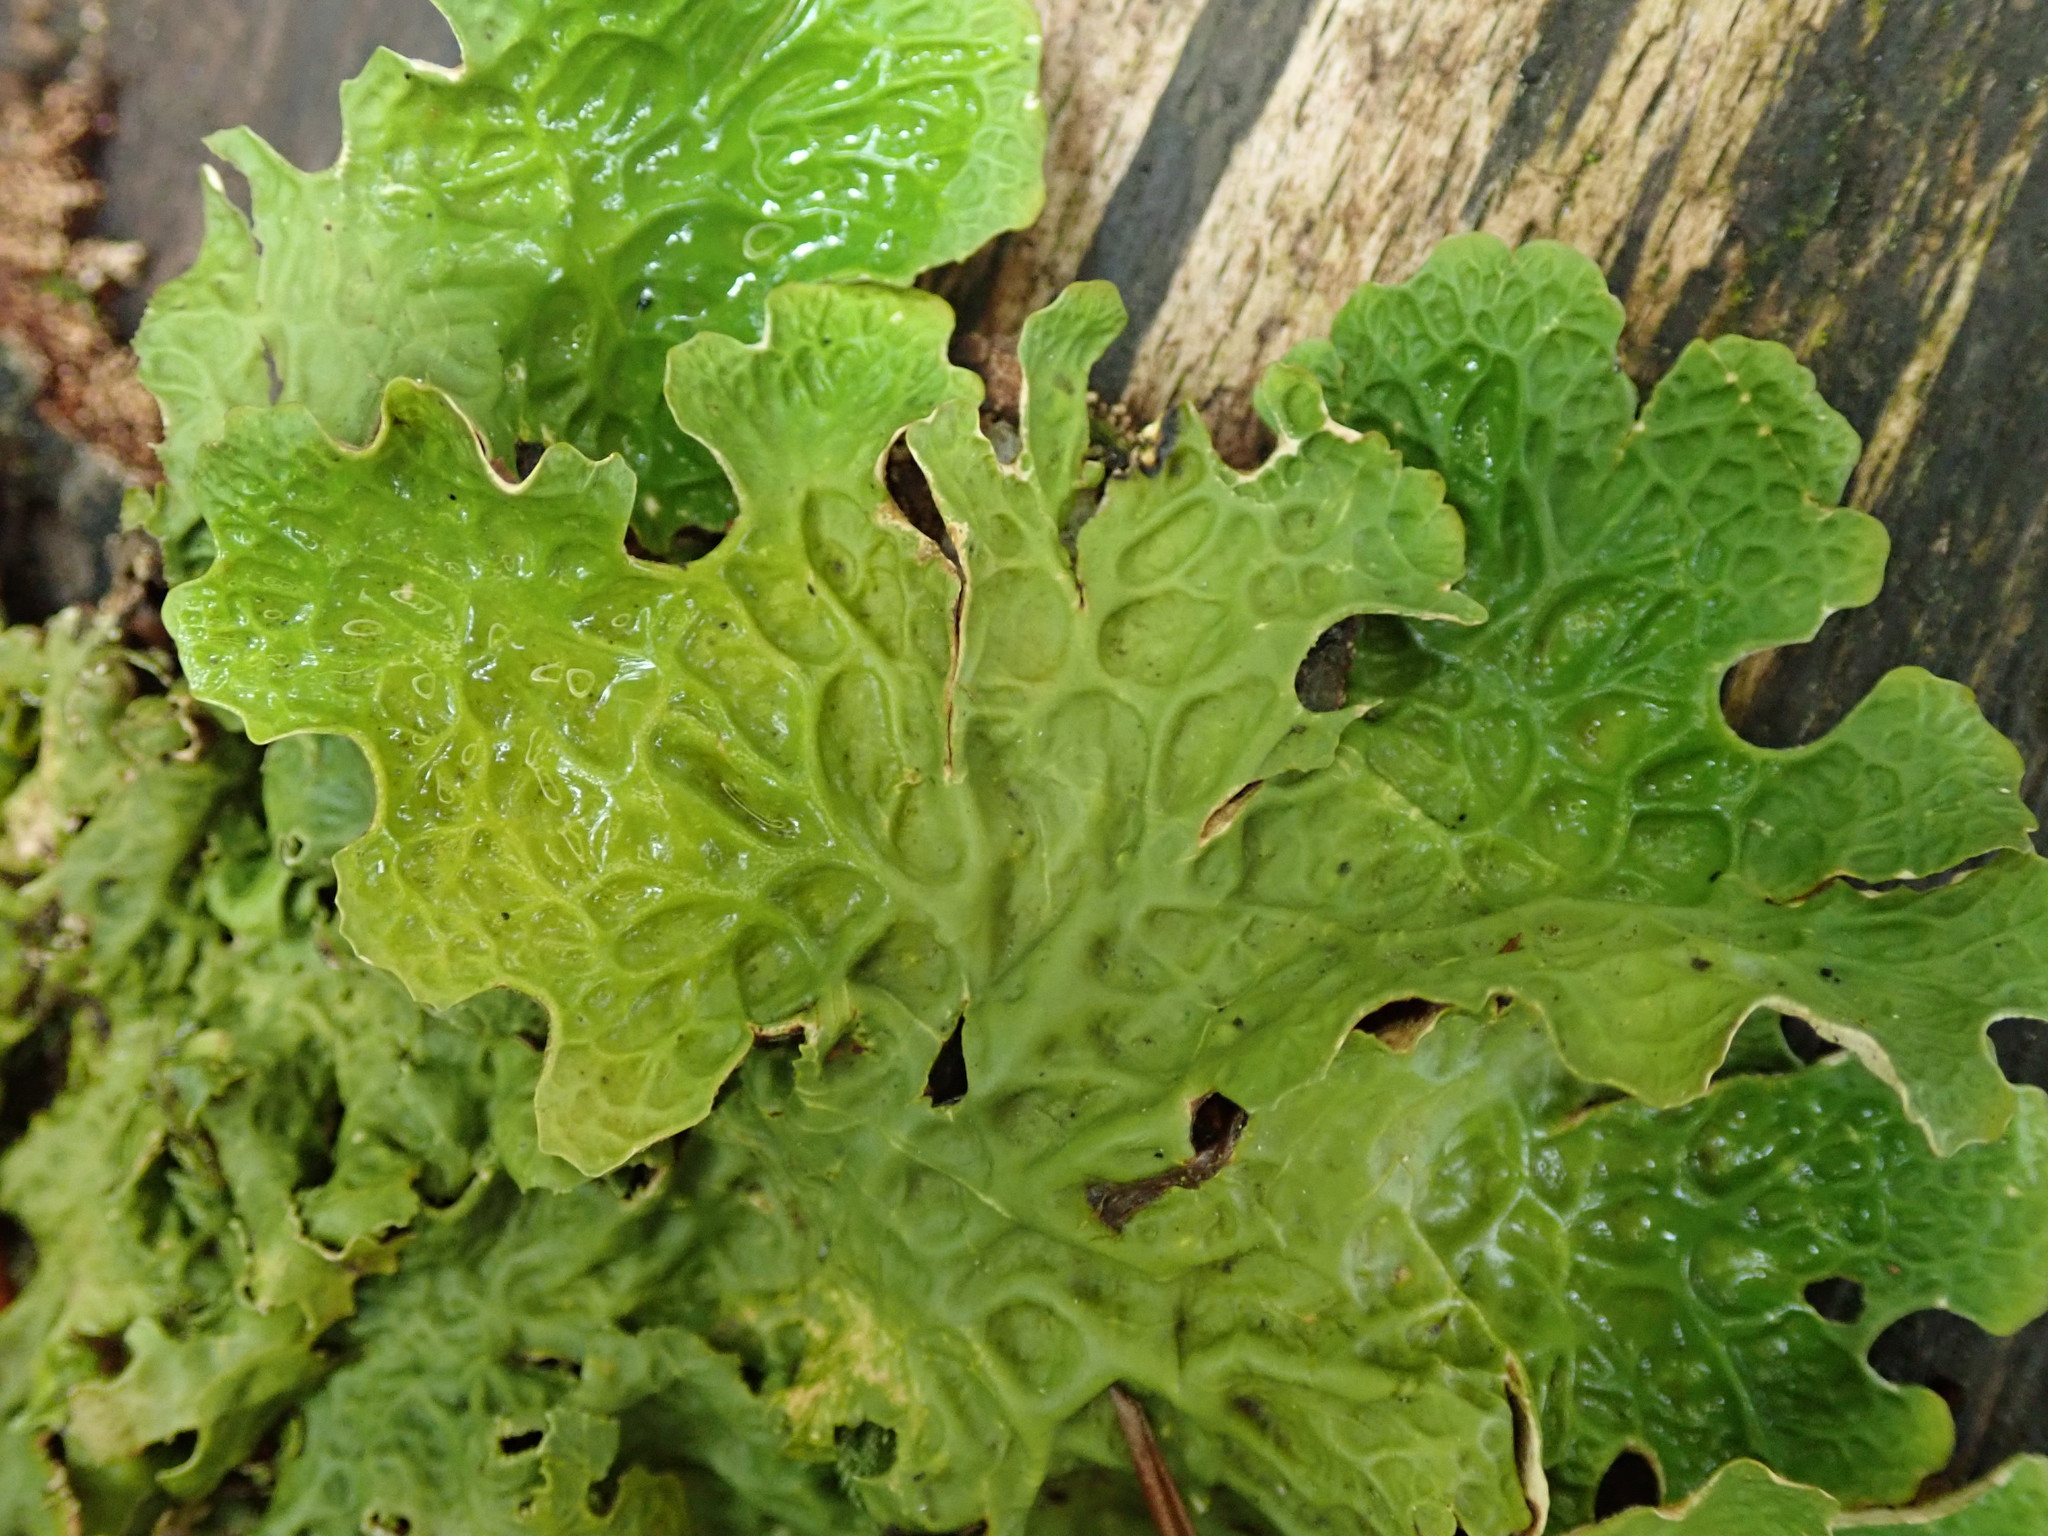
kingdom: Fungi
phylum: Ascomycota
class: Lecanoromycetes
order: Peltigerales
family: Lobariaceae
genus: Lobaria
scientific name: Lobaria pulmonaria
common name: Lungwort
